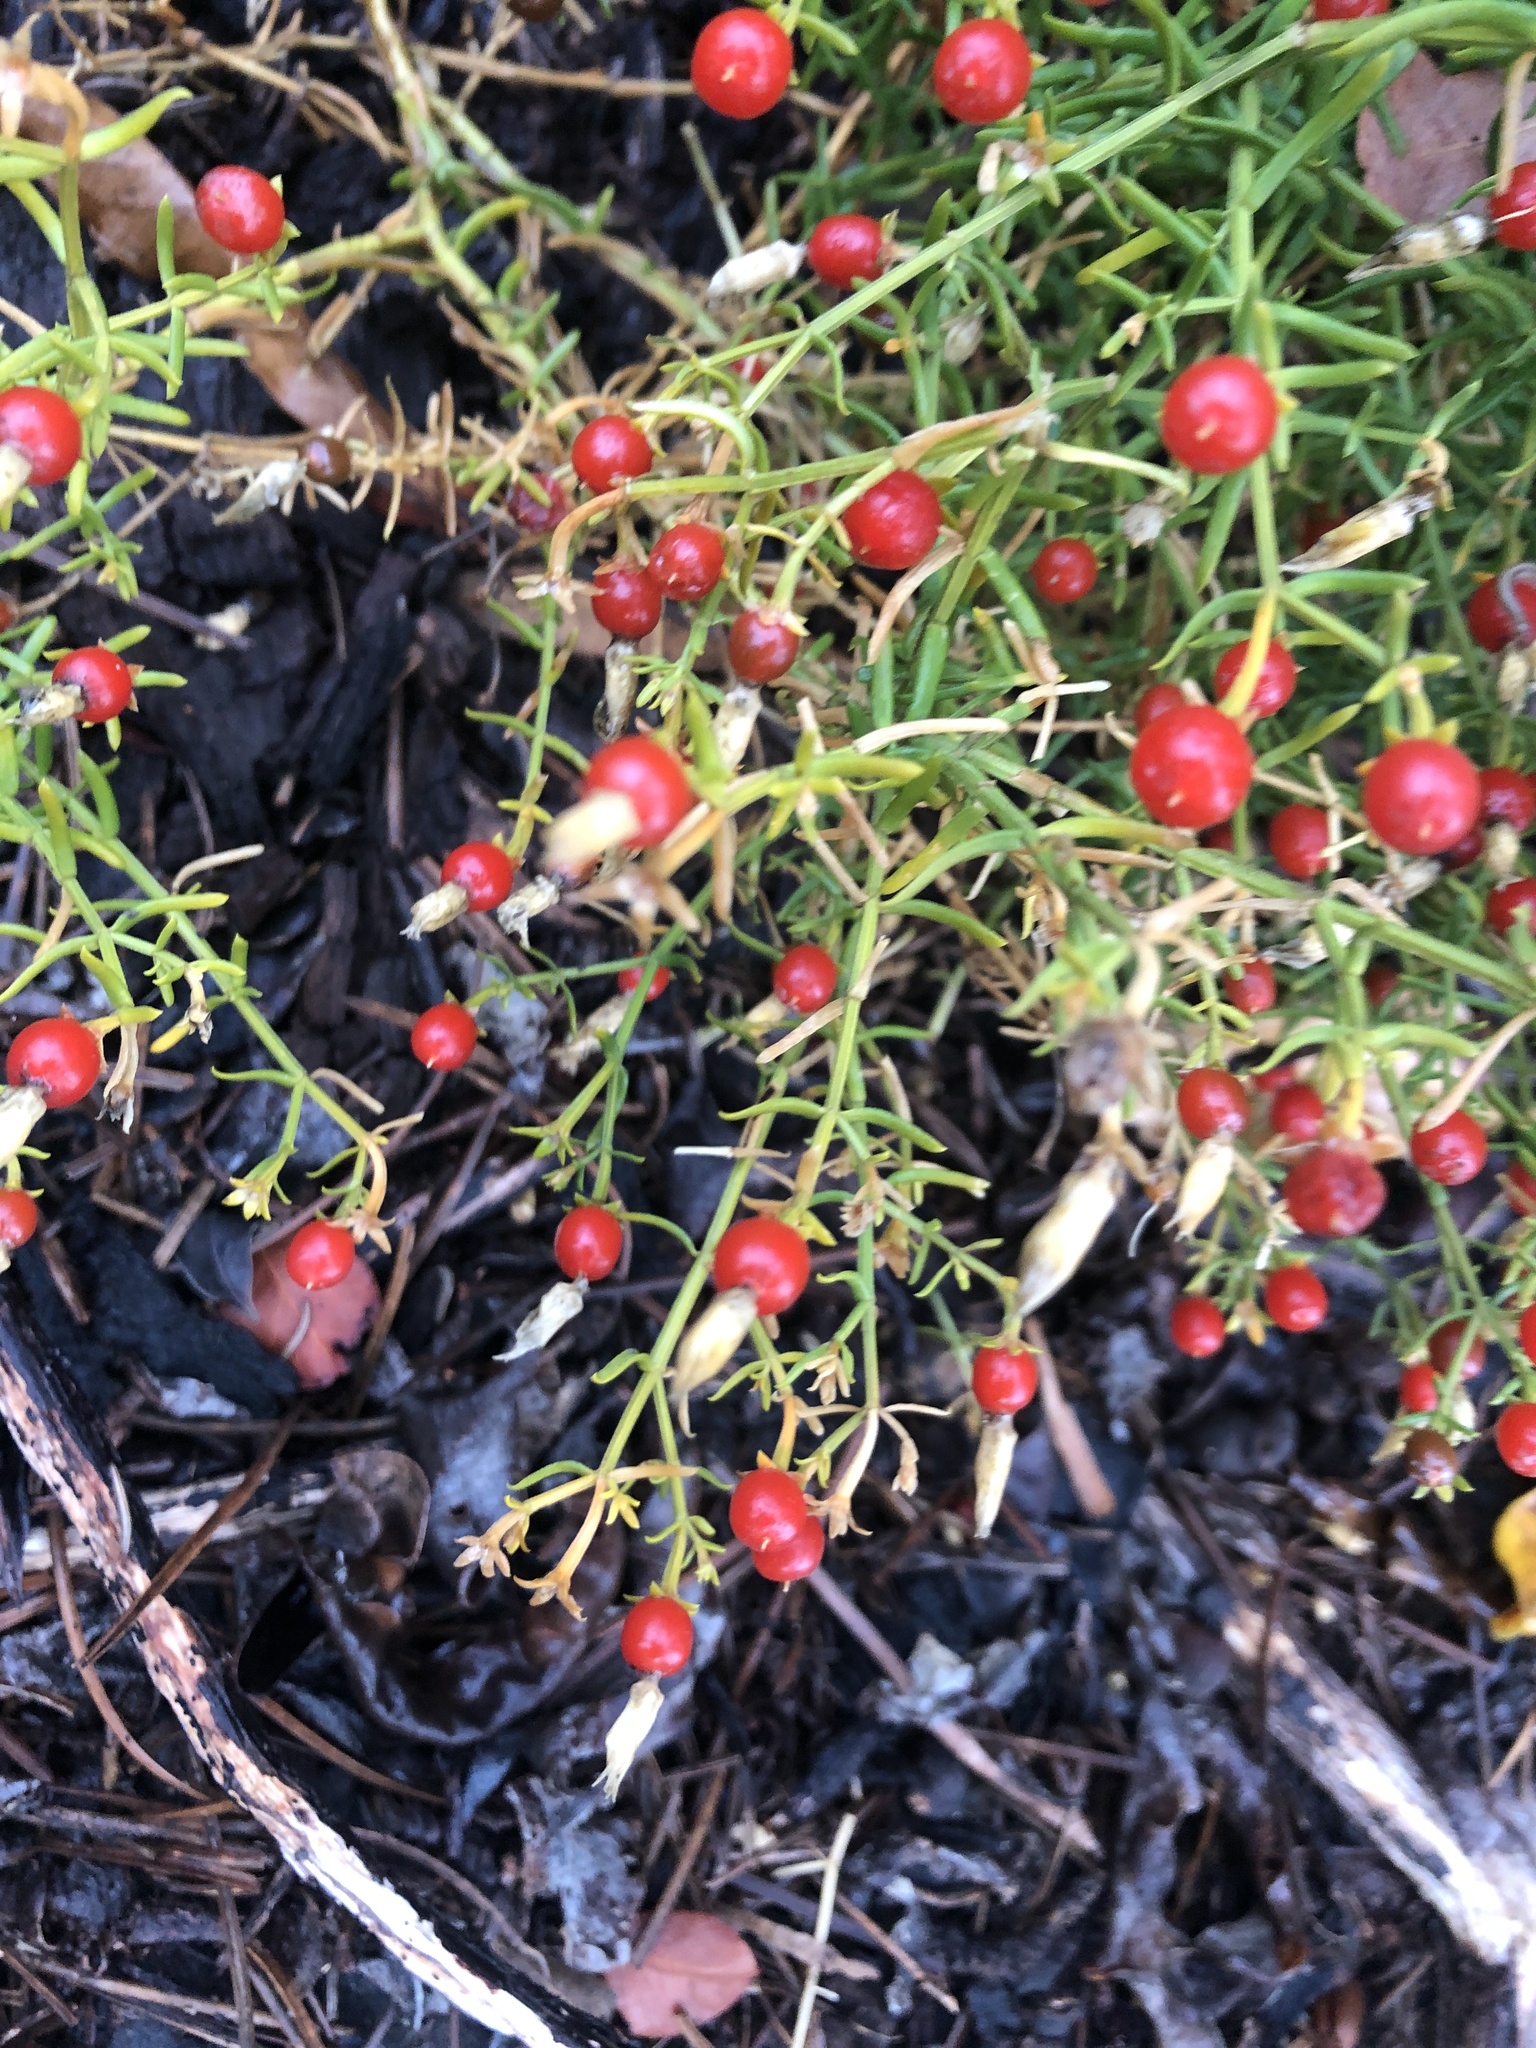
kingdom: Plantae
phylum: Tracheophyta
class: Magnoliopsida
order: Gentianales
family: Gentianaceae
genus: Chironia
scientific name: Chironia baccifera
